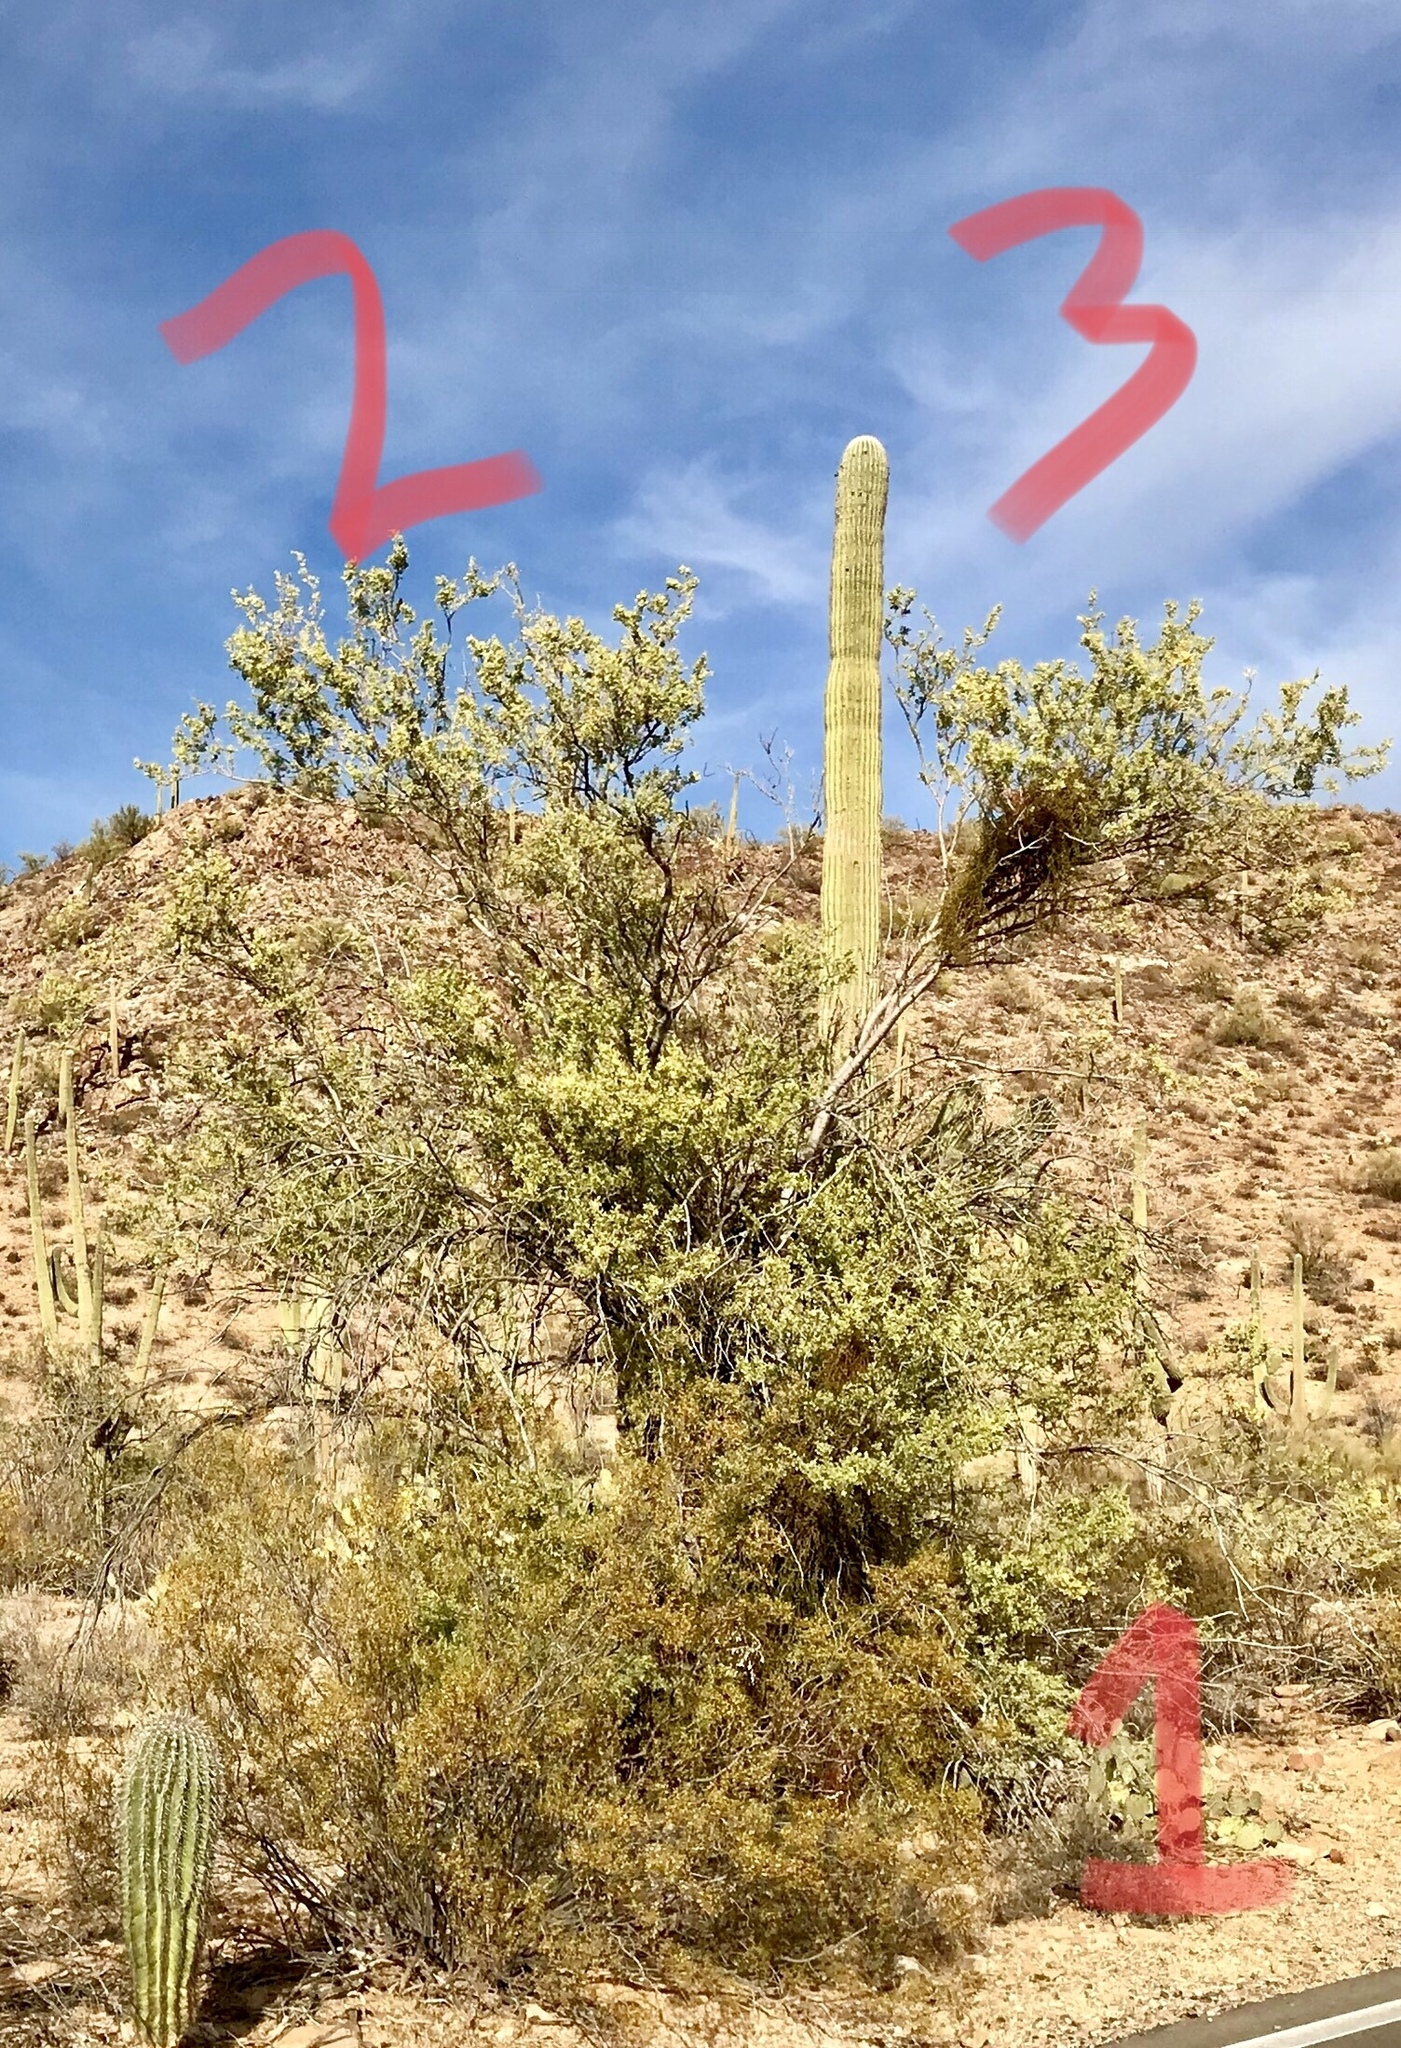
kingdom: Plantae
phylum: Tracheophyta
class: Magnoliopsida
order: Fabales
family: Fabaceae
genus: Olneya
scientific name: Olneya tesota
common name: Desert ironwood
